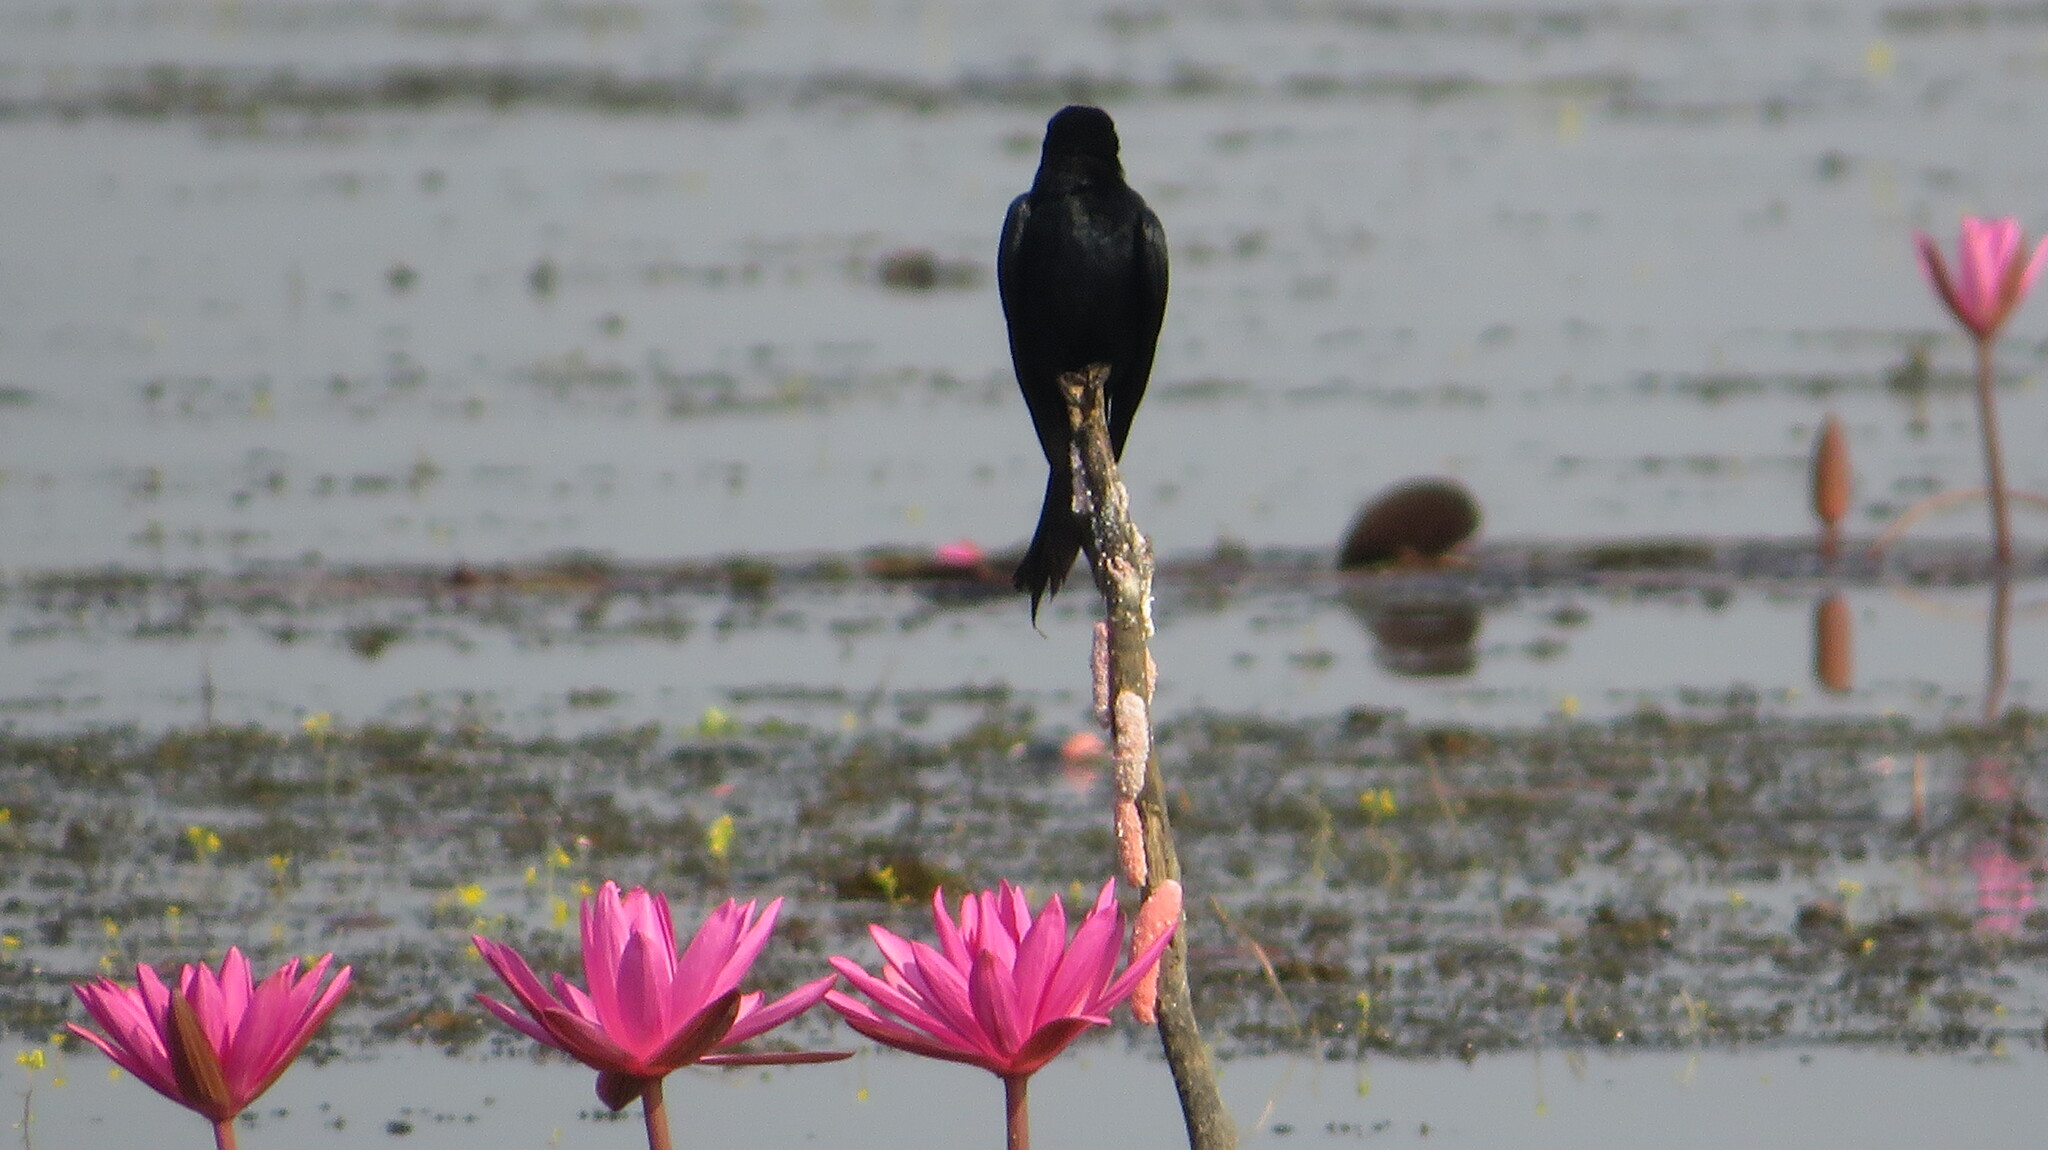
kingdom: Animalia
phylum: Chordata
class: Aves
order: Passeriformes
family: Dicruridae
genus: Dicrurus
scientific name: Dicrurus macrocercus
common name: Black drongo
